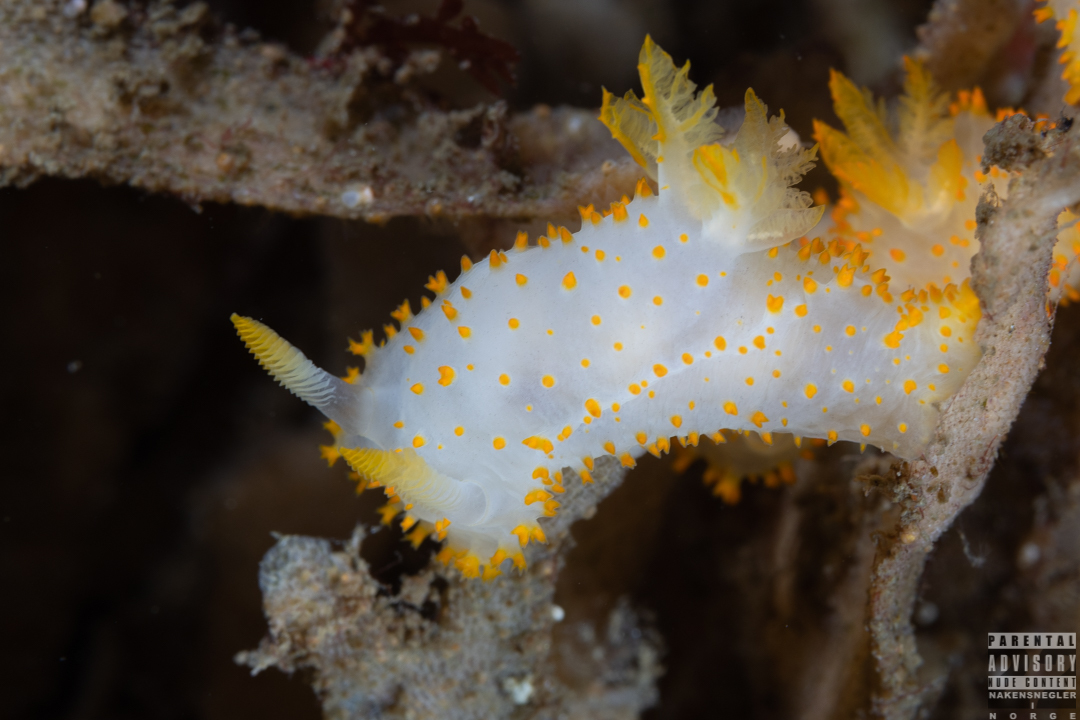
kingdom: Animalia
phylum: Mollusca
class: Gastropoda
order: Nudibranchia
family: Polyceridae
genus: Crimora
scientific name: Crimora papillata
